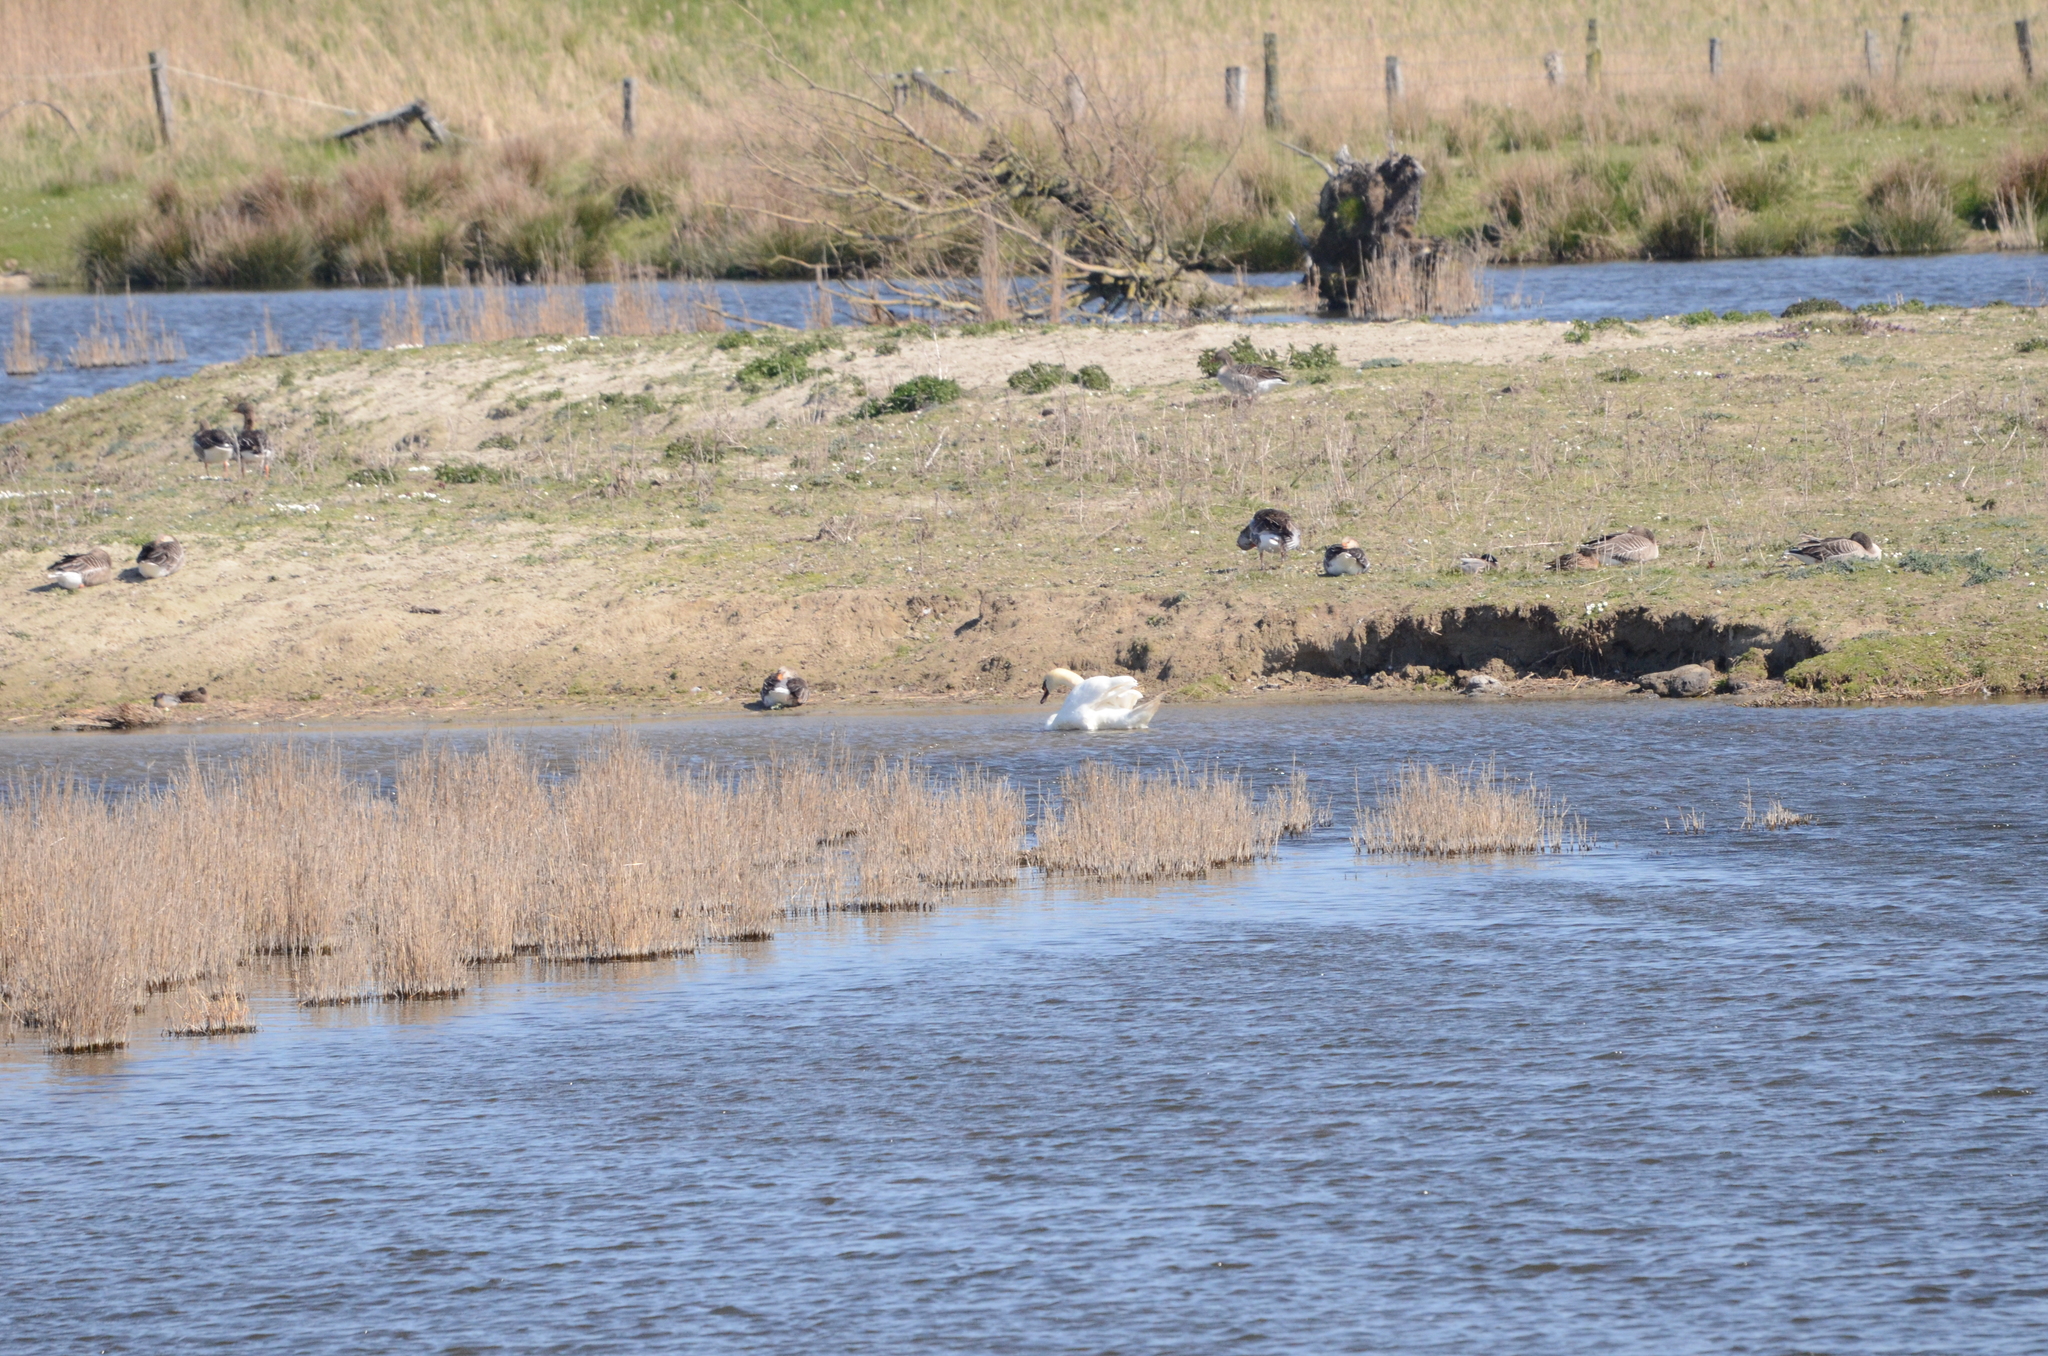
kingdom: Animalia
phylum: Chordata
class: Aves
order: Anseriformes
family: Anatidae
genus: Cygnus
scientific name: Cygnus olor
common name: Mute swan
